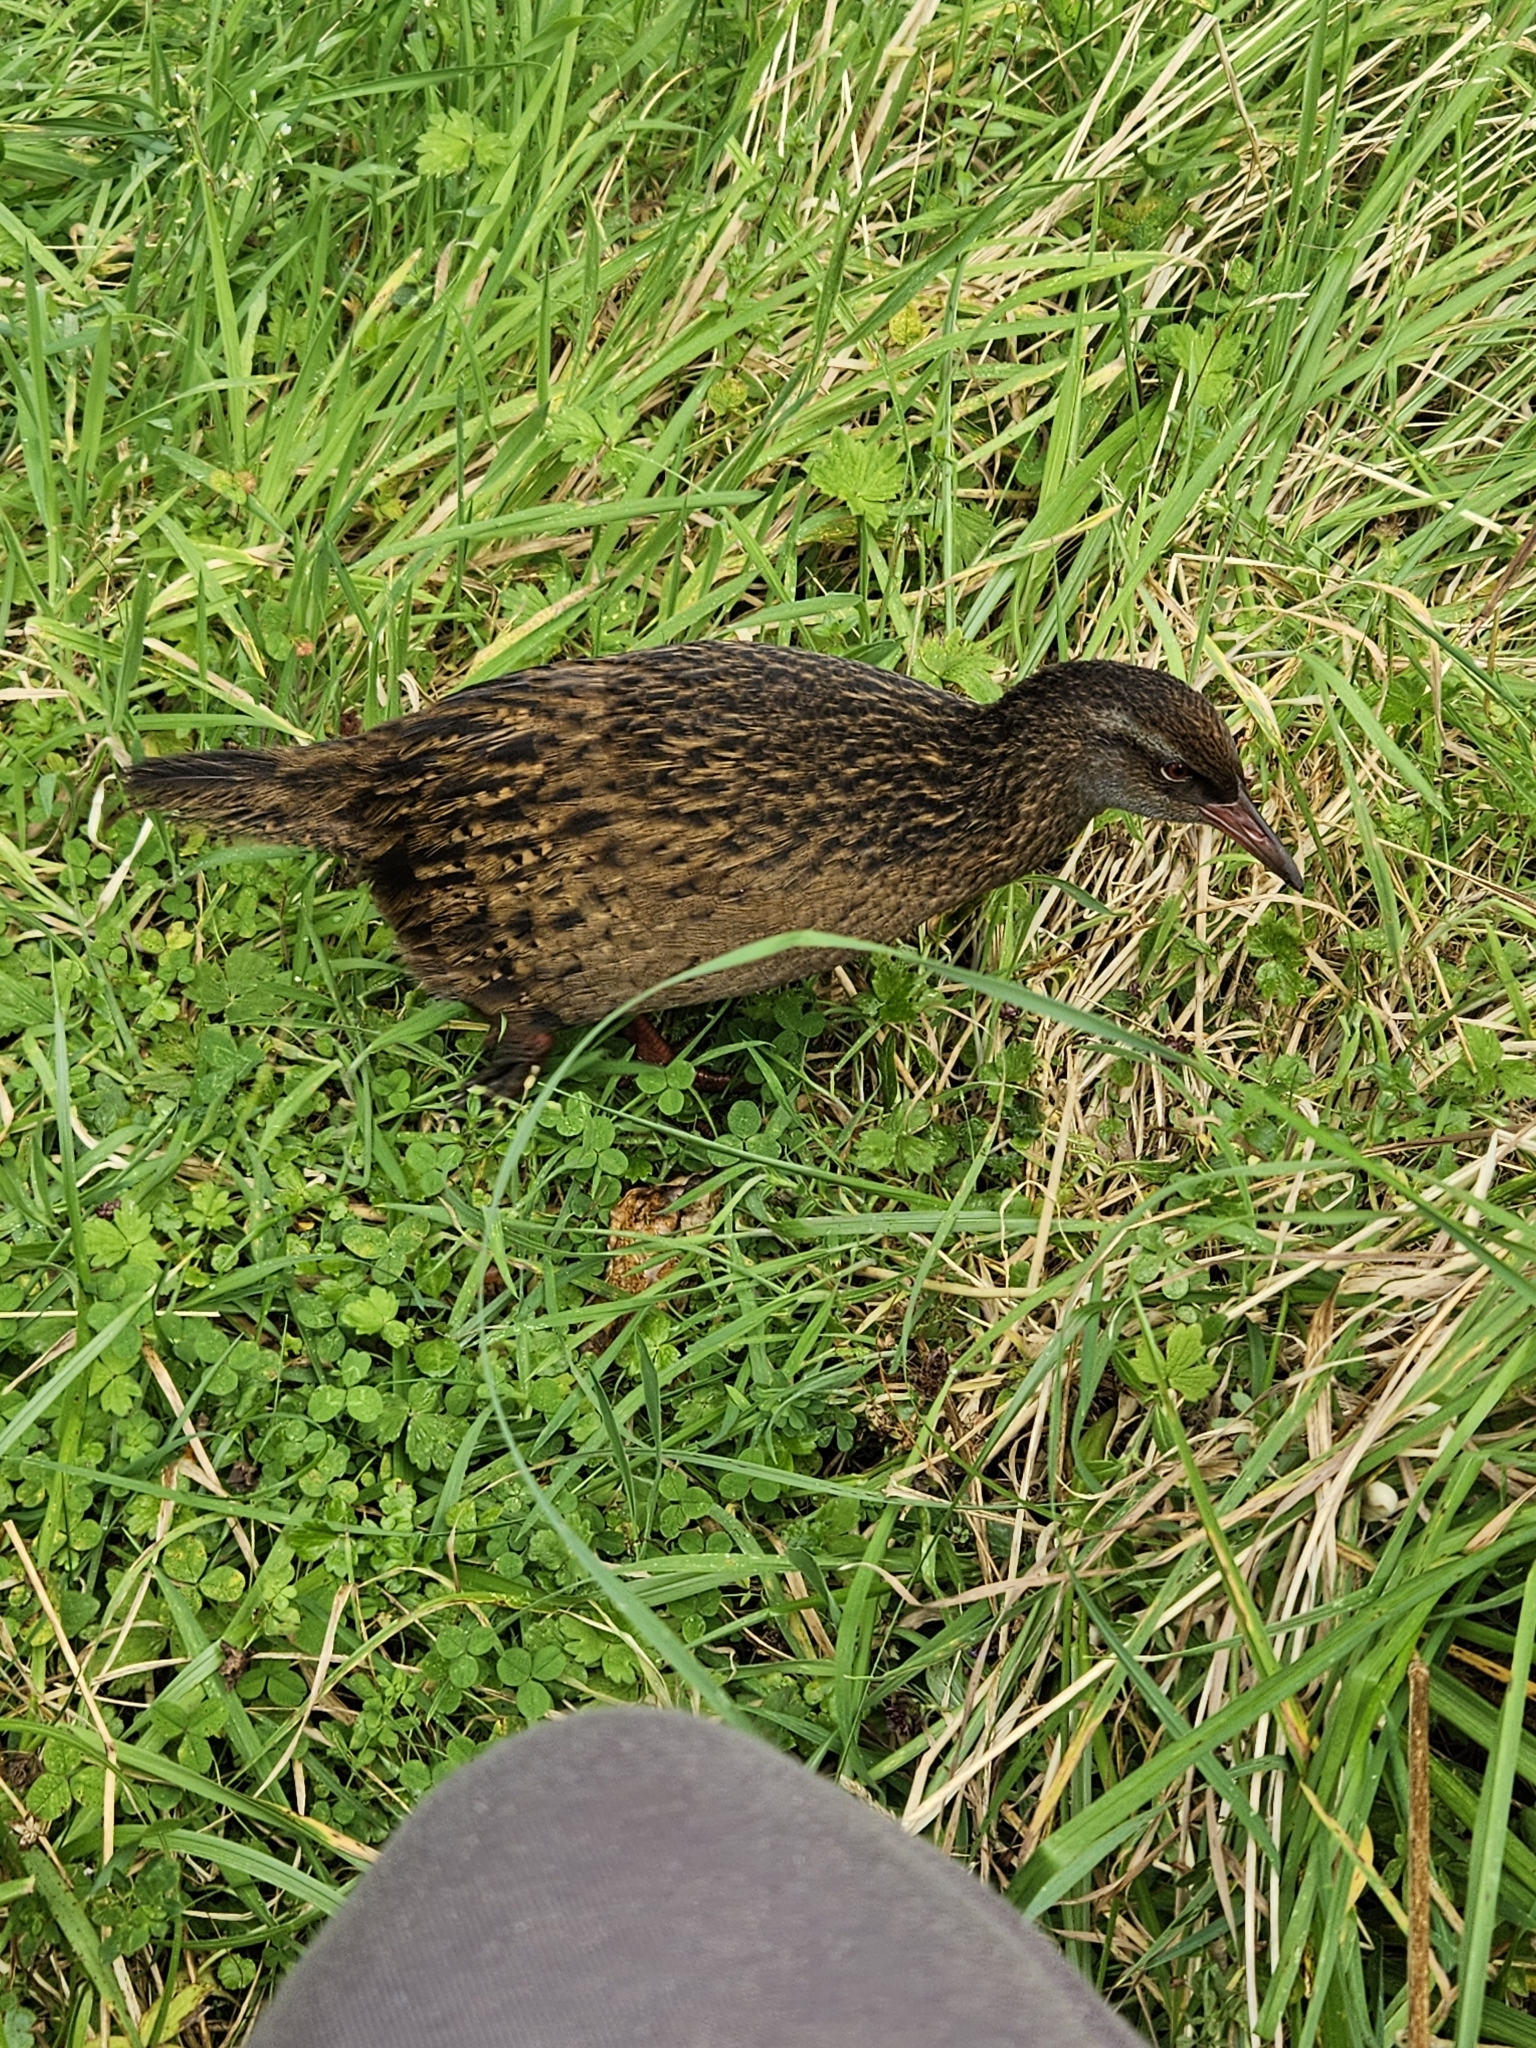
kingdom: Animalia
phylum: Chordata
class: Aves
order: Gruiformes
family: Rallidae
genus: Gallirallus
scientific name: Gallirallus australis
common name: Weka
